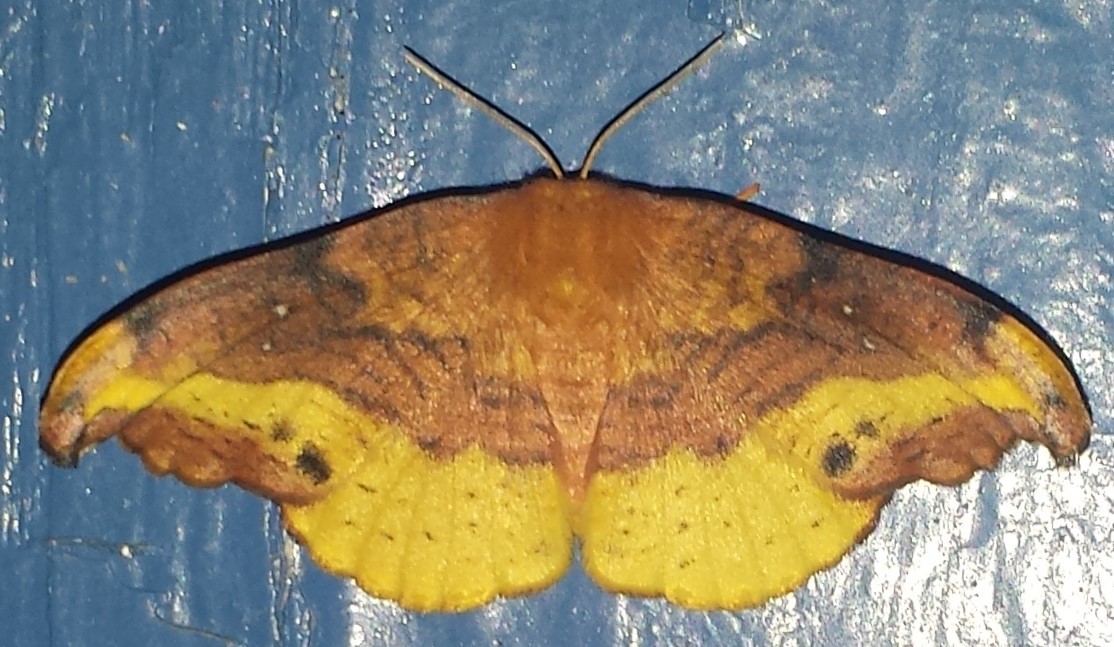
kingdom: Animalia
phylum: Arthropoda
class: Insecta
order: Lepidoptera
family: Drepanidae
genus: Oreta
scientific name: Oreta rosea
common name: Rose hooktip
